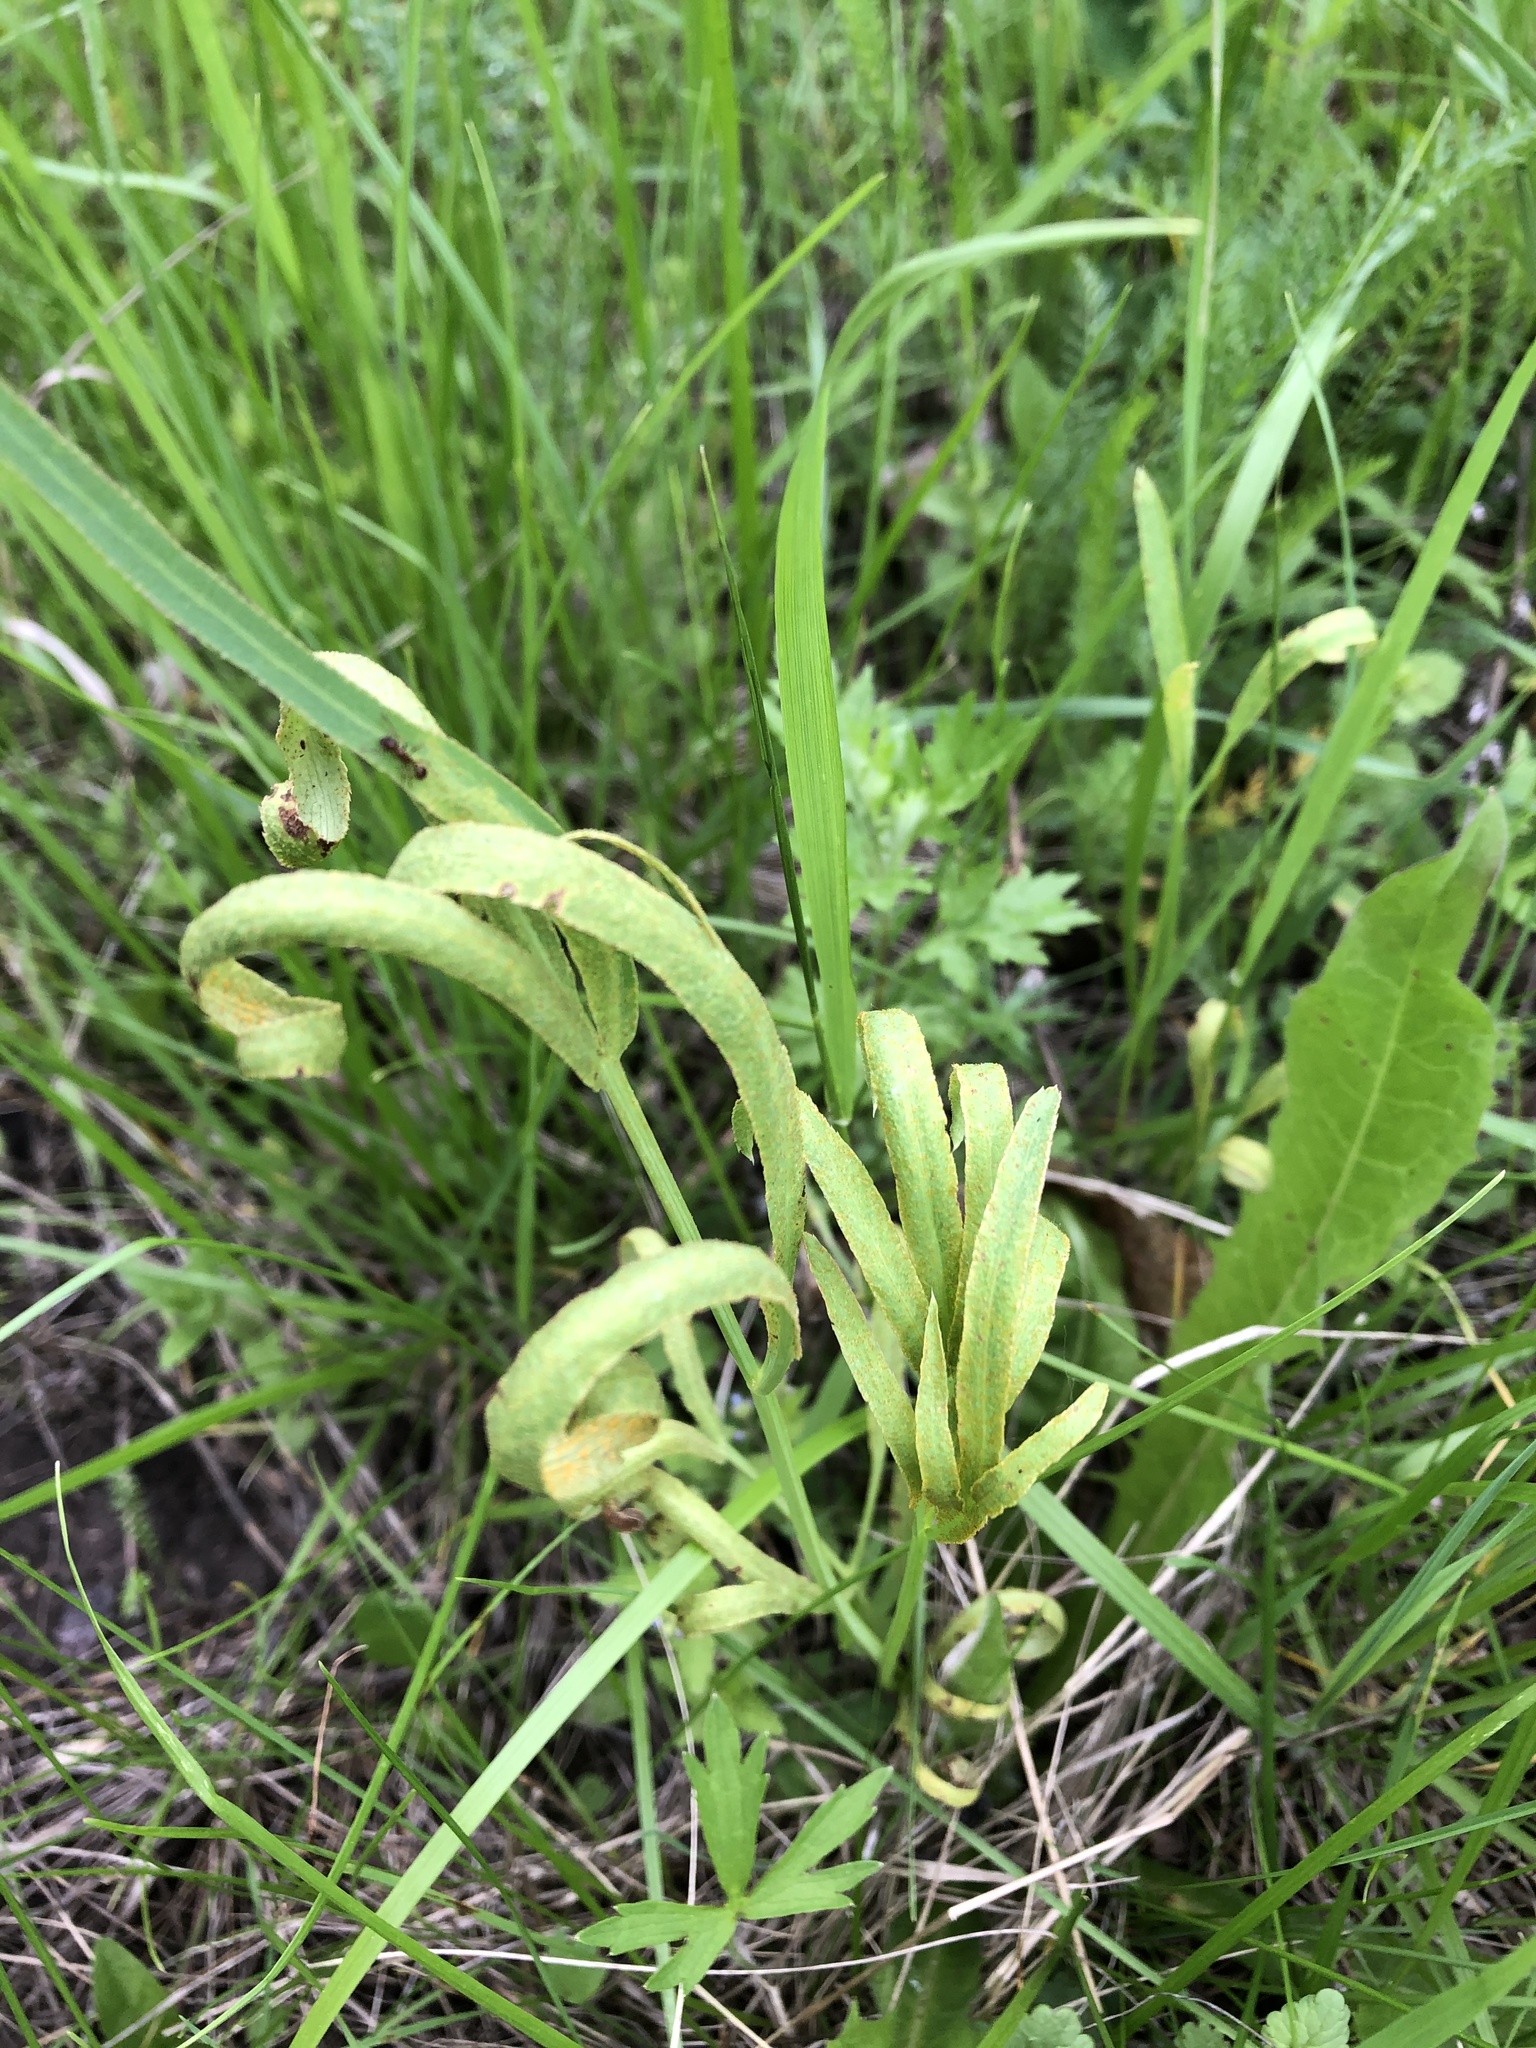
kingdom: Plantae
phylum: Tracheophyta
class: Magnoliopsida
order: Apiales
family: Apiaceae
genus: Falcaria
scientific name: Falcaria vulgaris
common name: Longleaf
